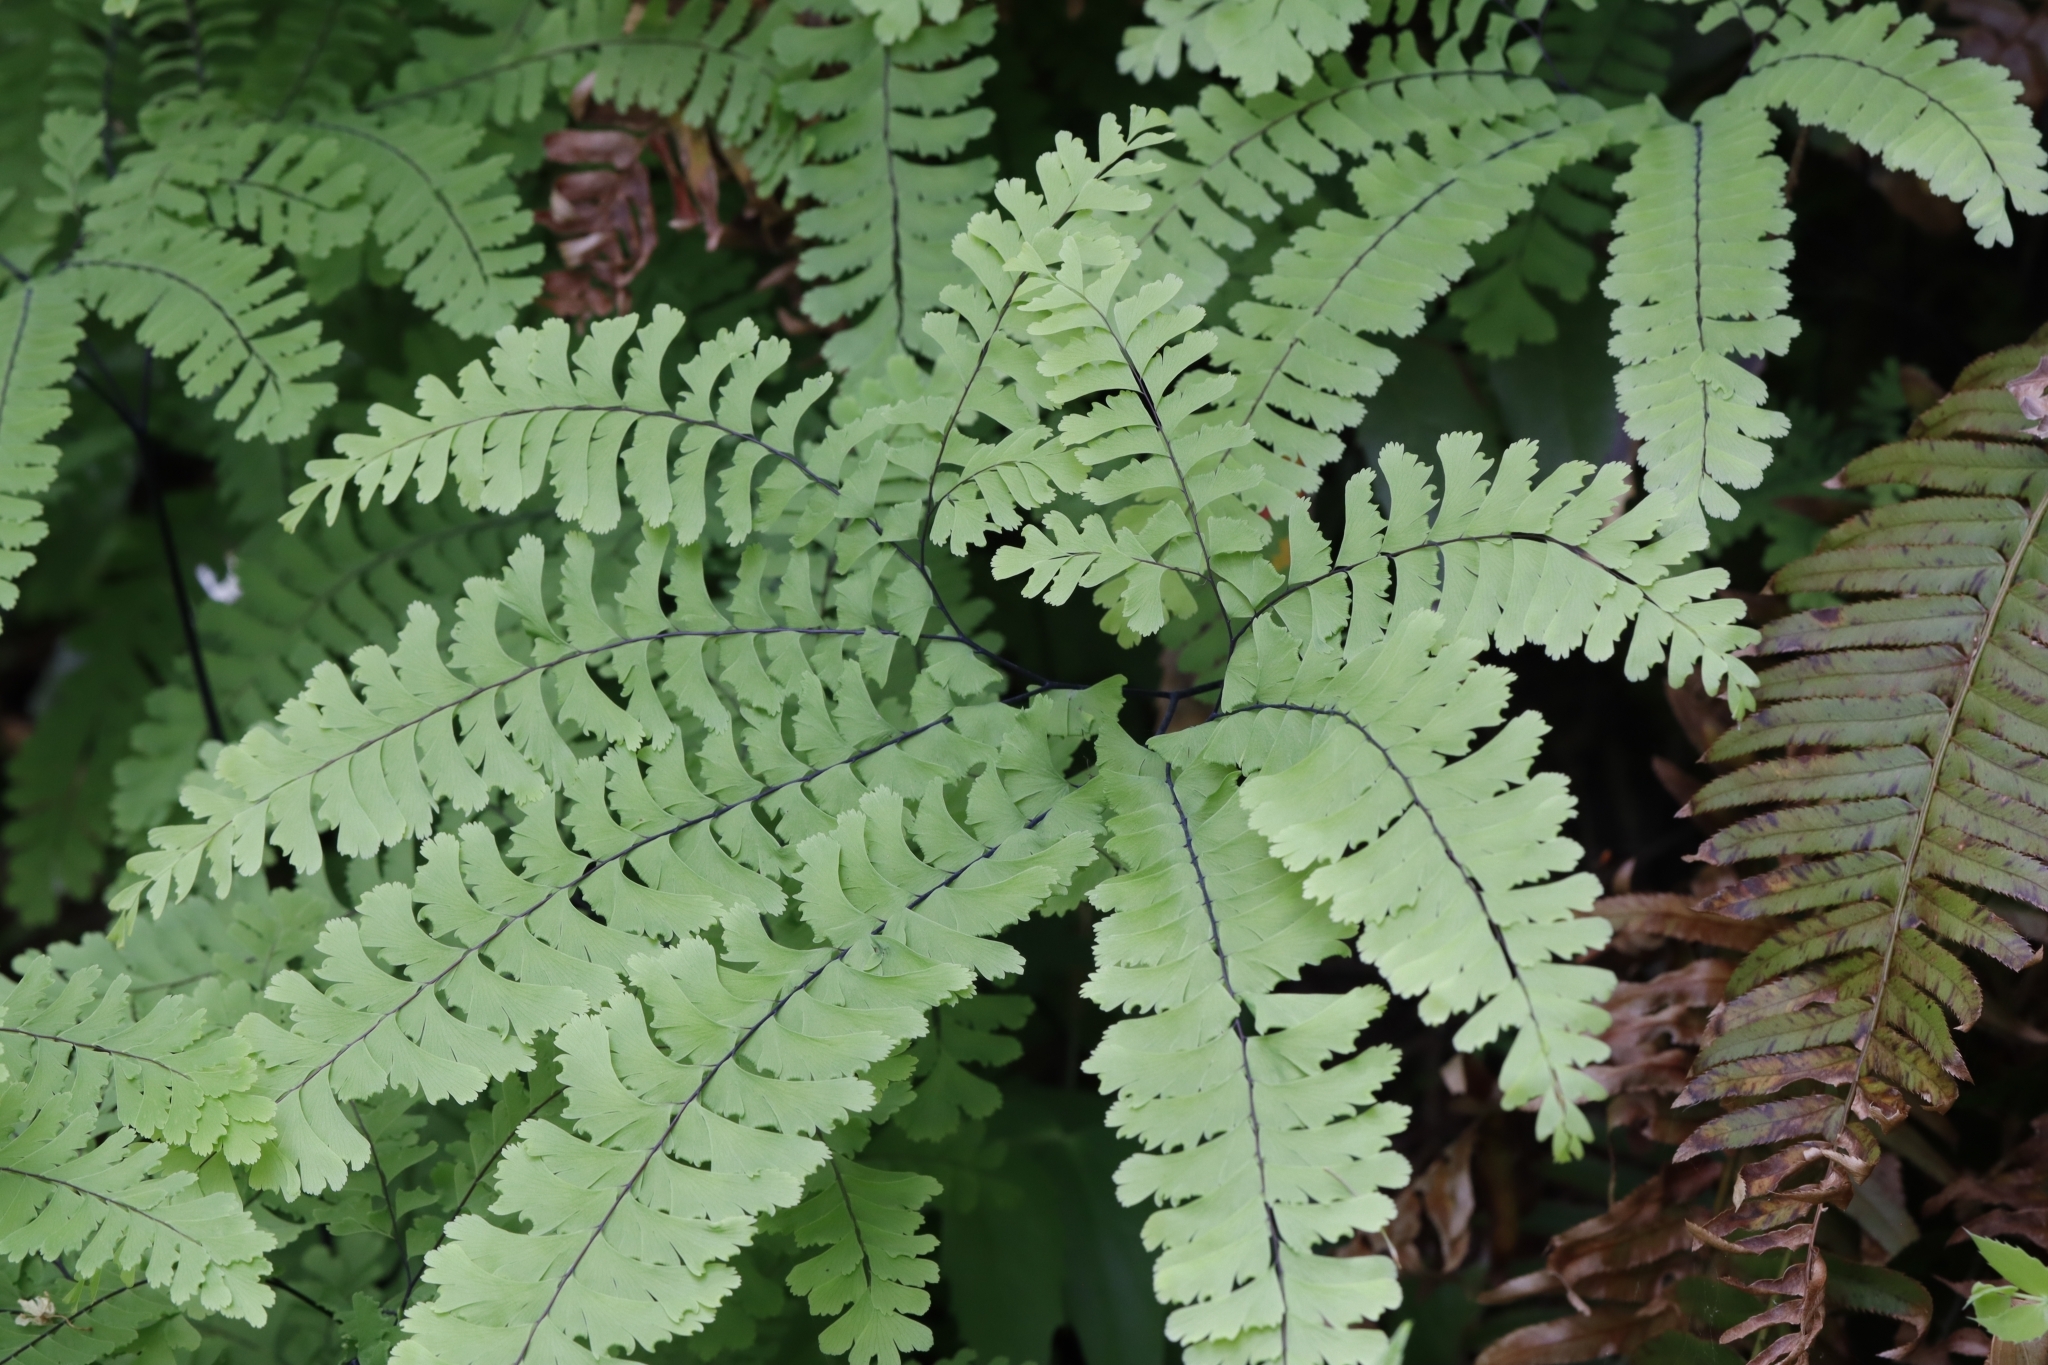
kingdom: Plantae
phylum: Tracheophyta
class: Polypodiopsida
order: Polypodiales
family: Pteridaceae
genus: Adiantum
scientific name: Adiantum aleuticum
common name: Aleutian maidenhair fern
